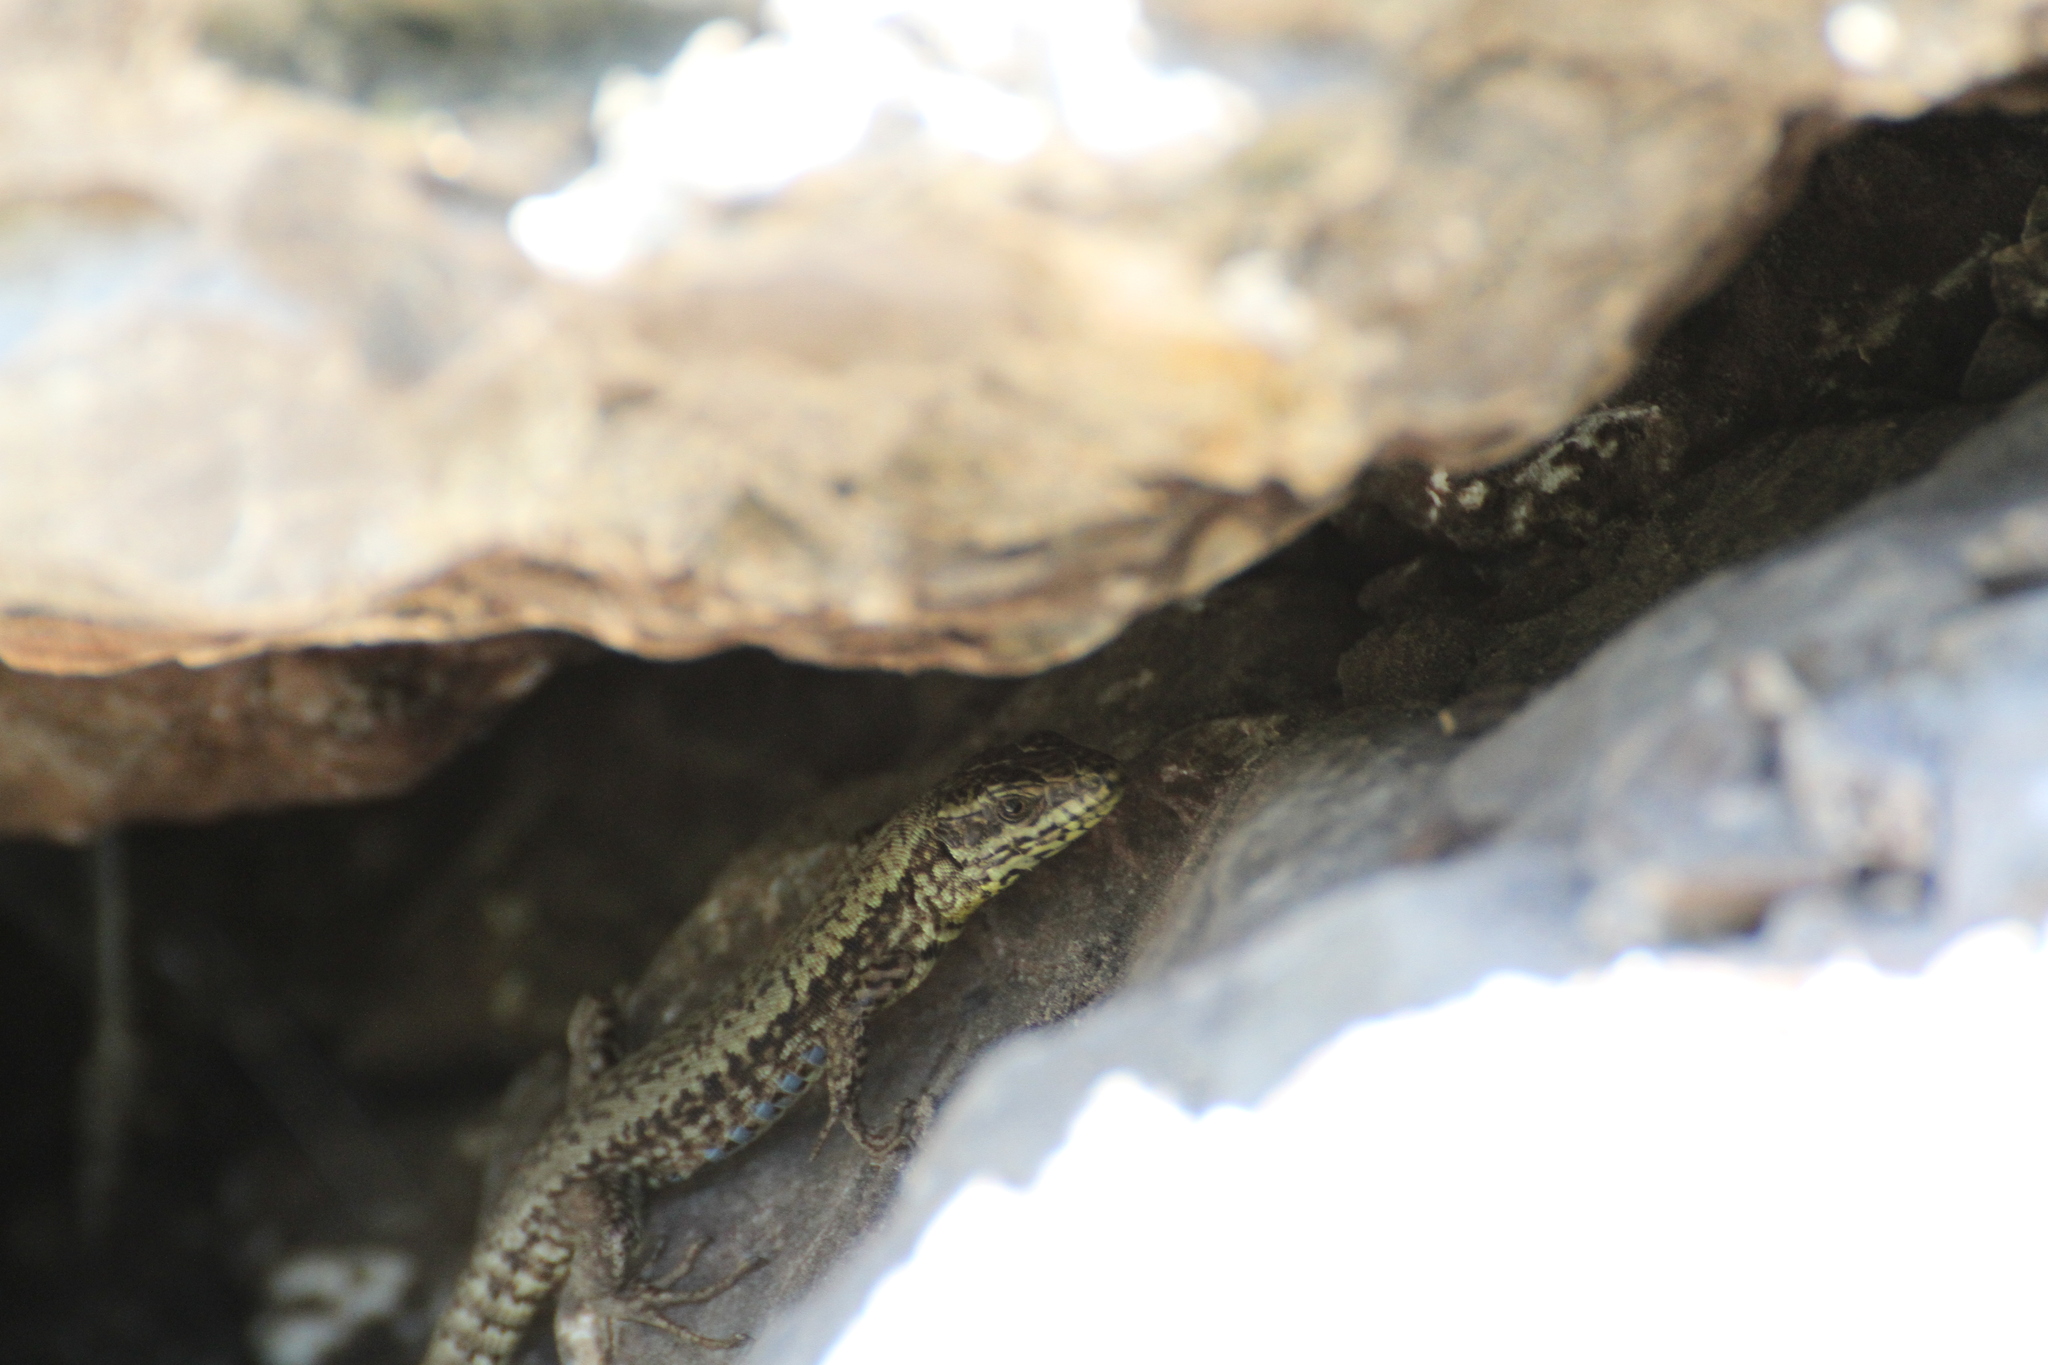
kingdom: Animalia
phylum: Chordata
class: Squamata
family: Lacertidae
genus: Podarcis
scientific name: Podarcis muralis
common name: Common wall lizard
